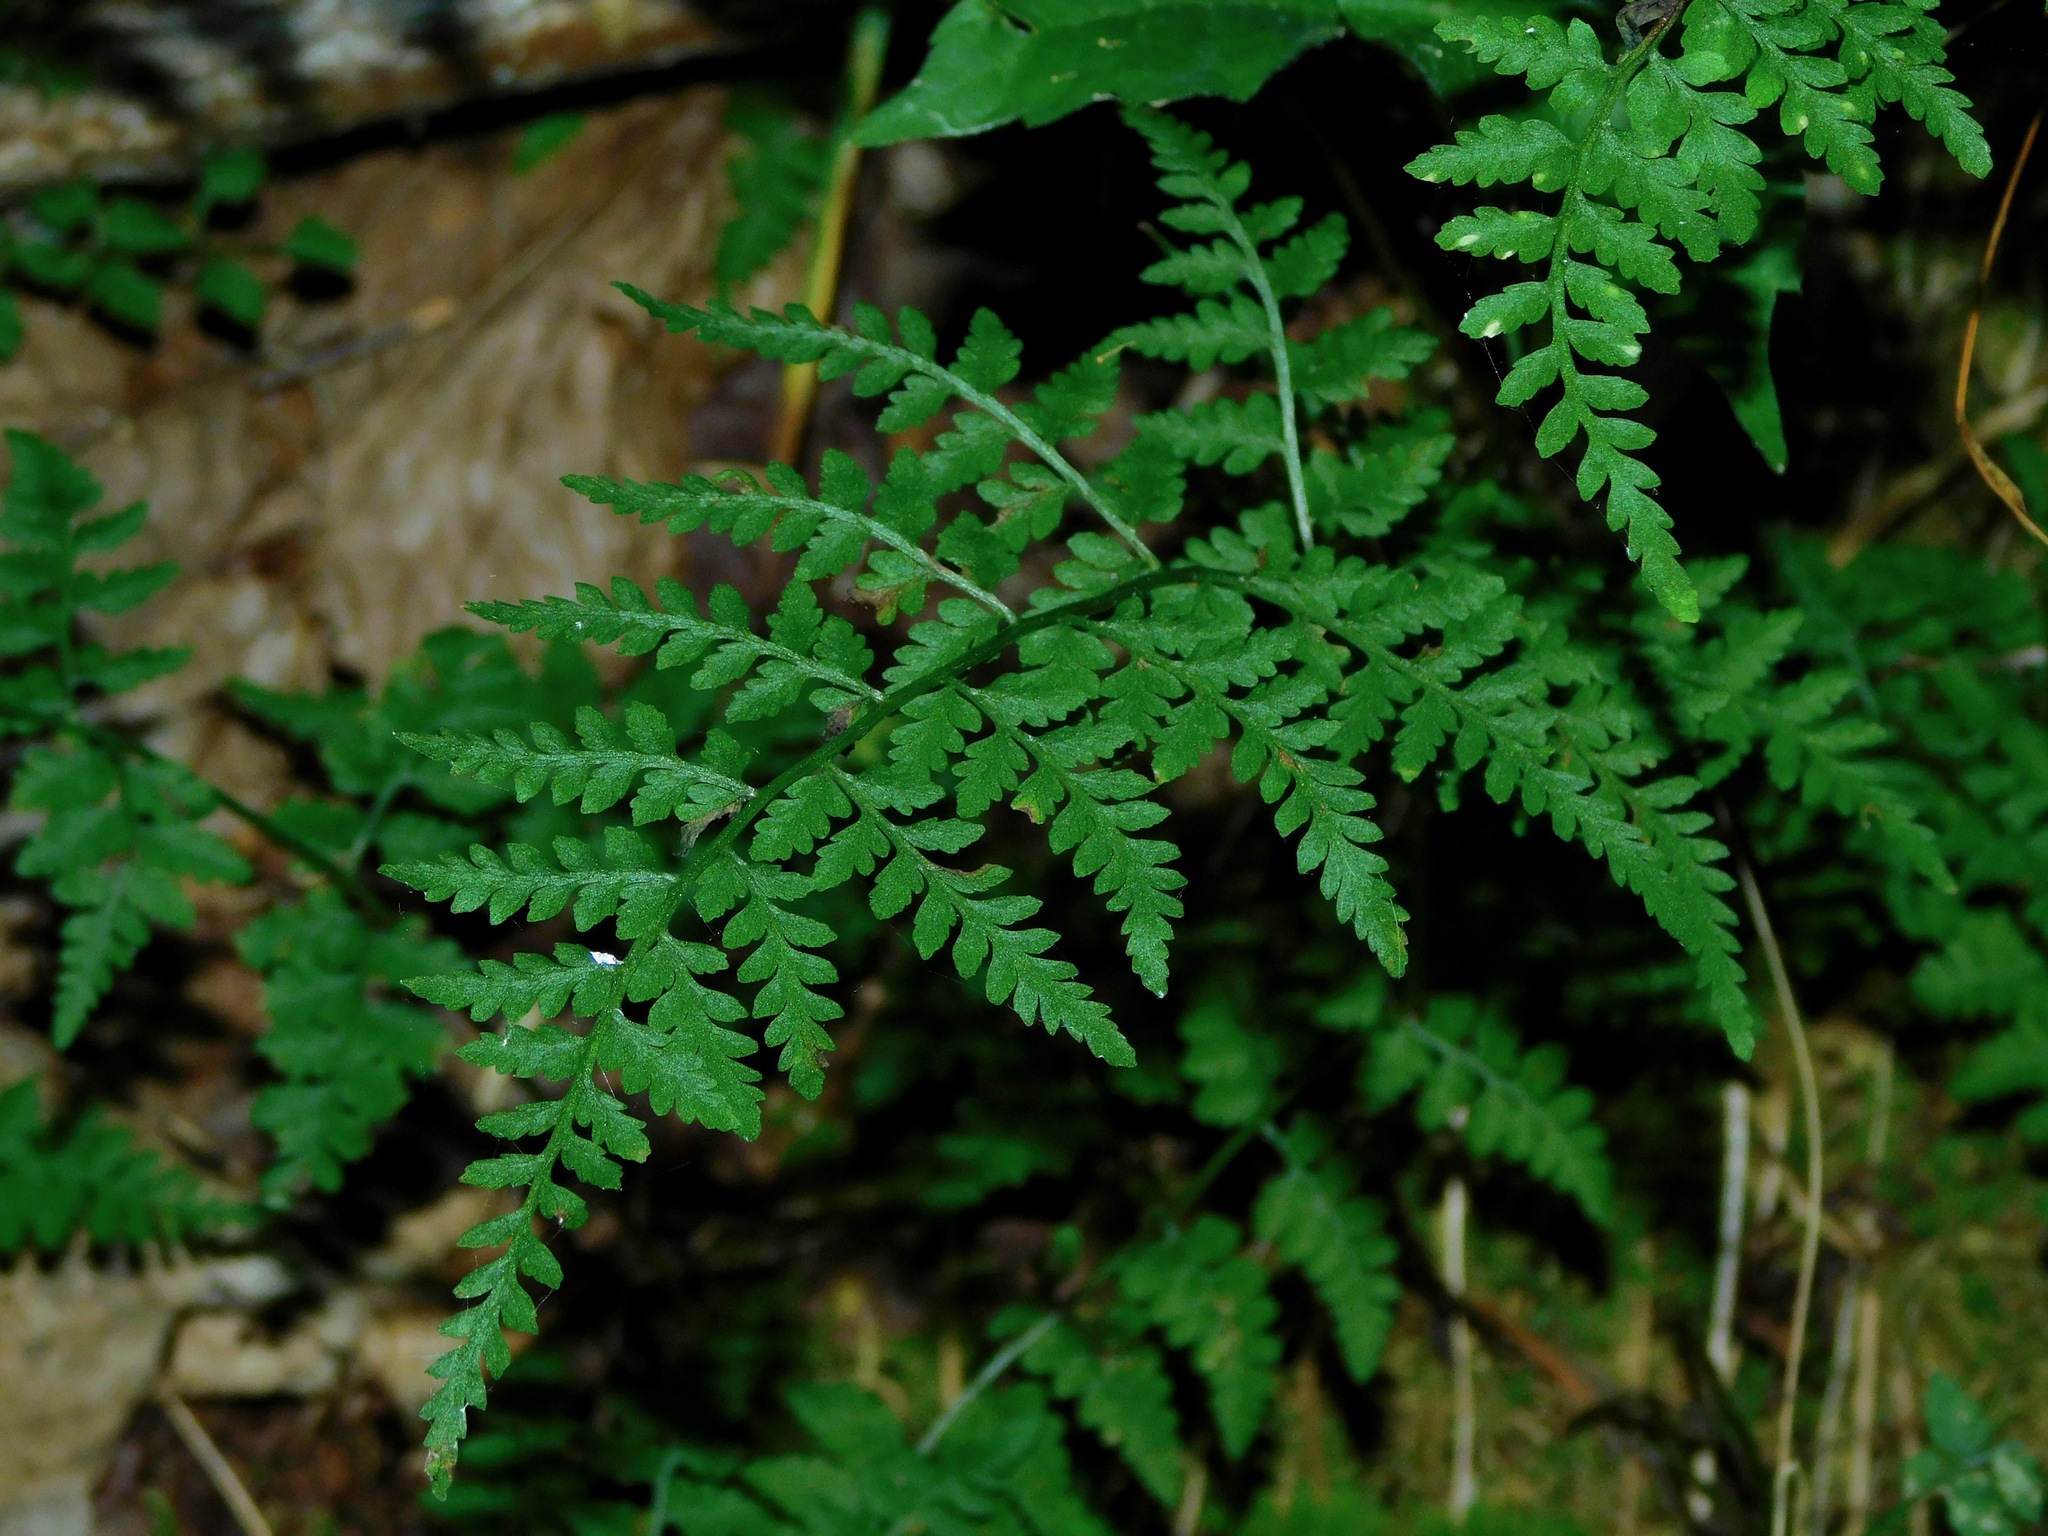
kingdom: Plantae
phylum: Tracheophyta
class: Polypodiopsida
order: Polypodiales
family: Cystopteridaceae
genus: Cystopteris
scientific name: Cystopteris protrusa
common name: Lowland brittle fern
